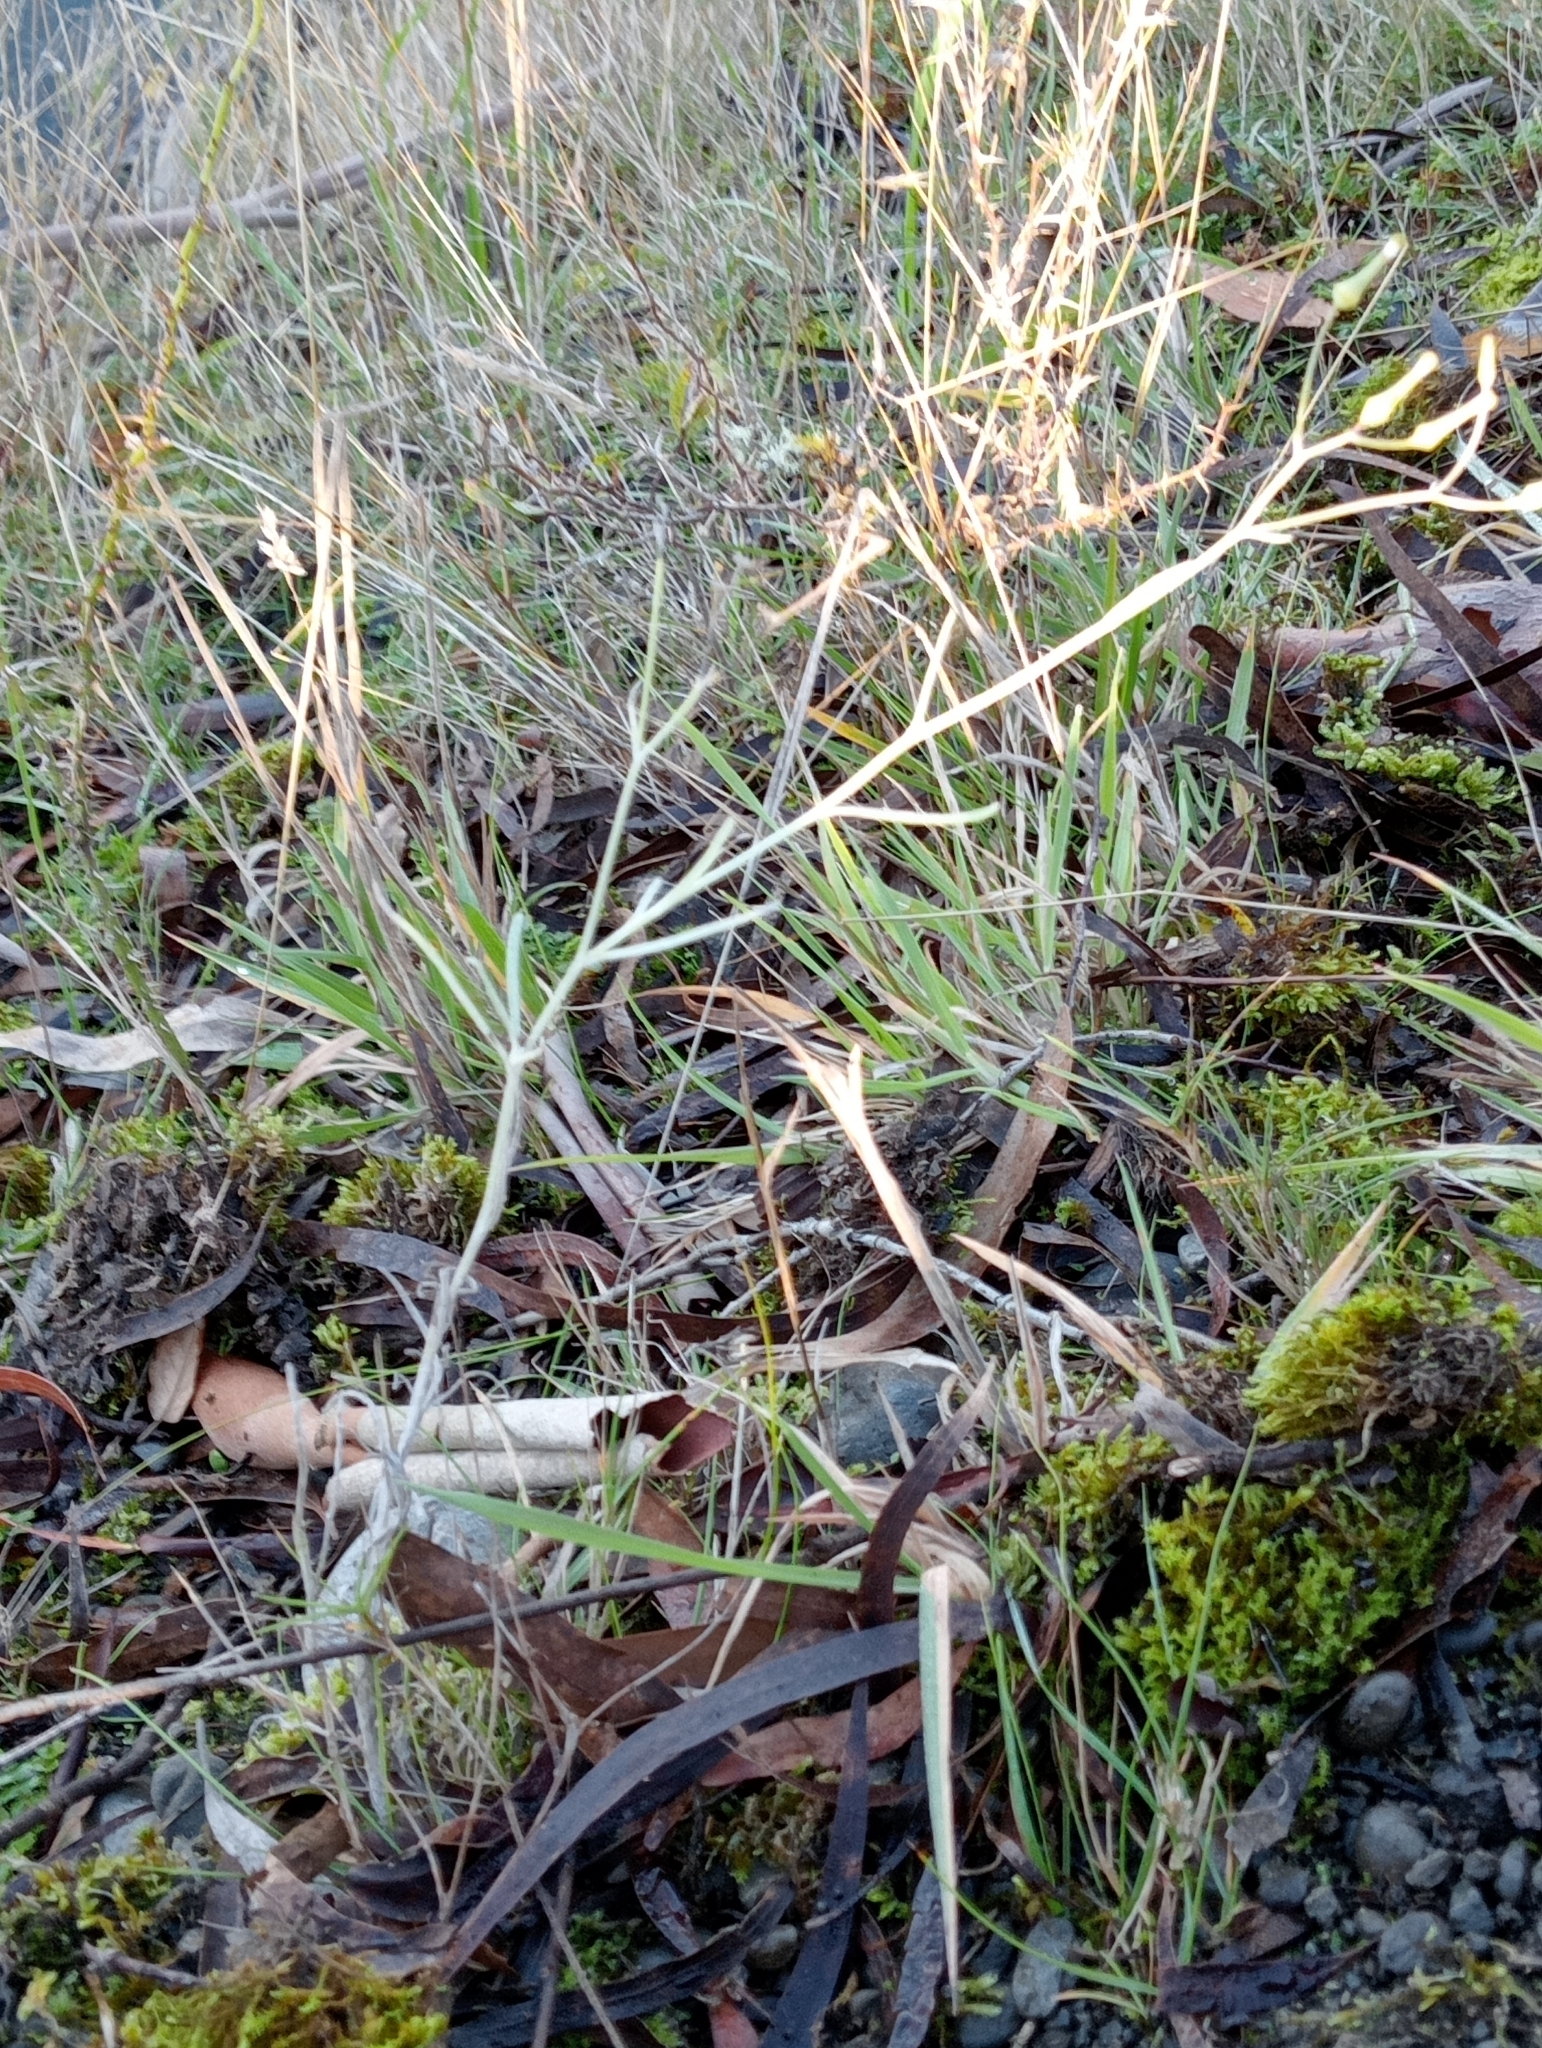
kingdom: Plantae
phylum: Tracheophyta
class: Magnoliopsida
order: Asterales
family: Asteraceae
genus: Senecio
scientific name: Senecio quadridentatus
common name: Cotton fireweed
